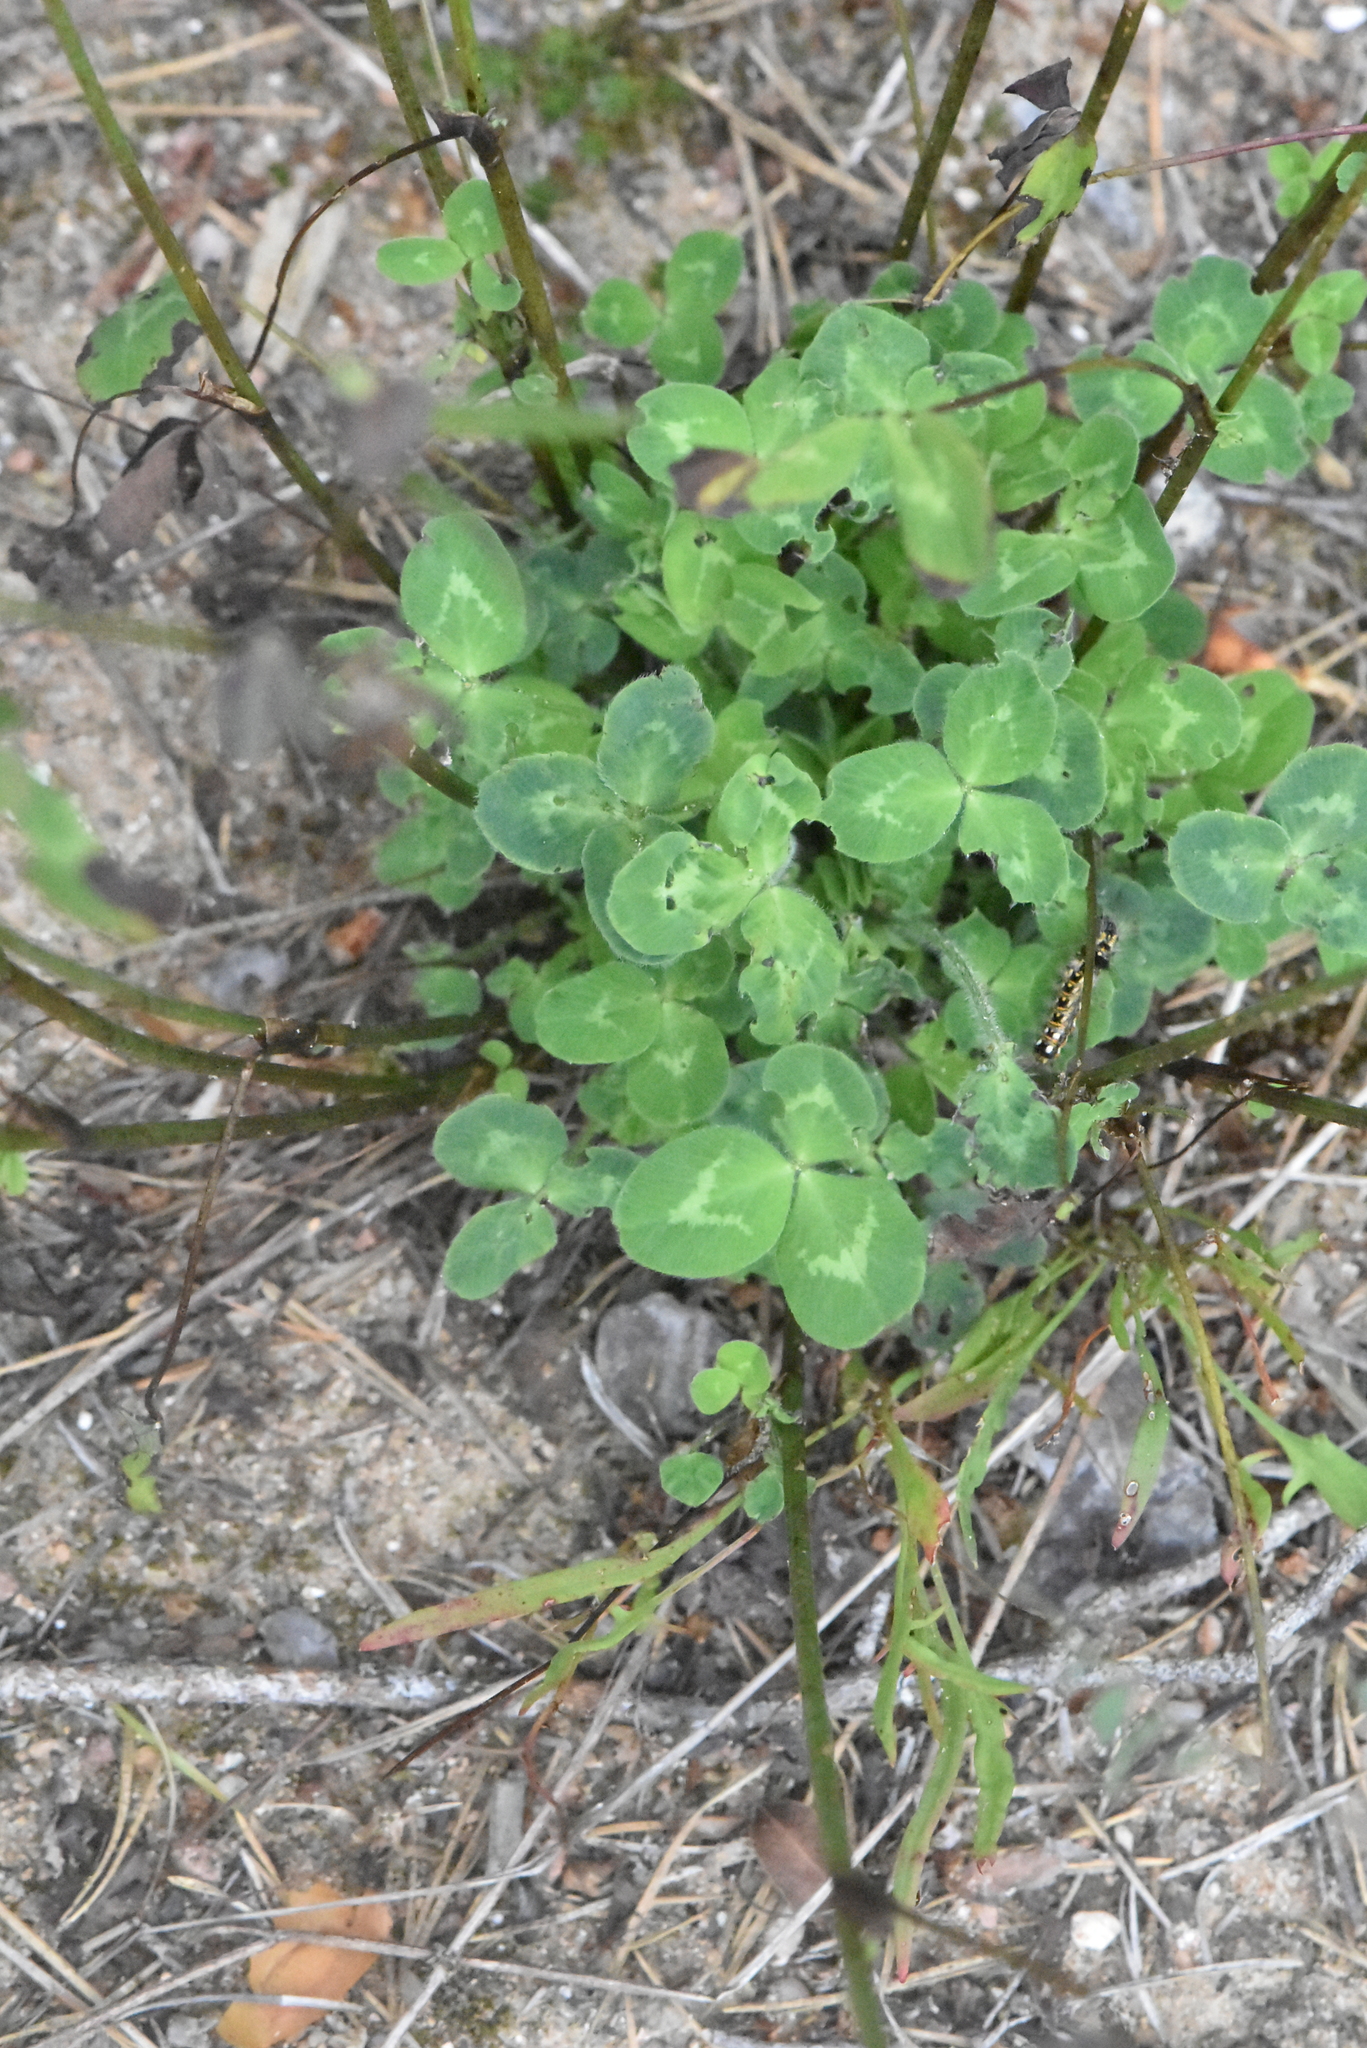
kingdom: Plantae
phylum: Tracheophyta
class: Magnoliopsida
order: Fabales
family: Fabaceae
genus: Trifolium
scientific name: Trifolium pratense
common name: Red clover
